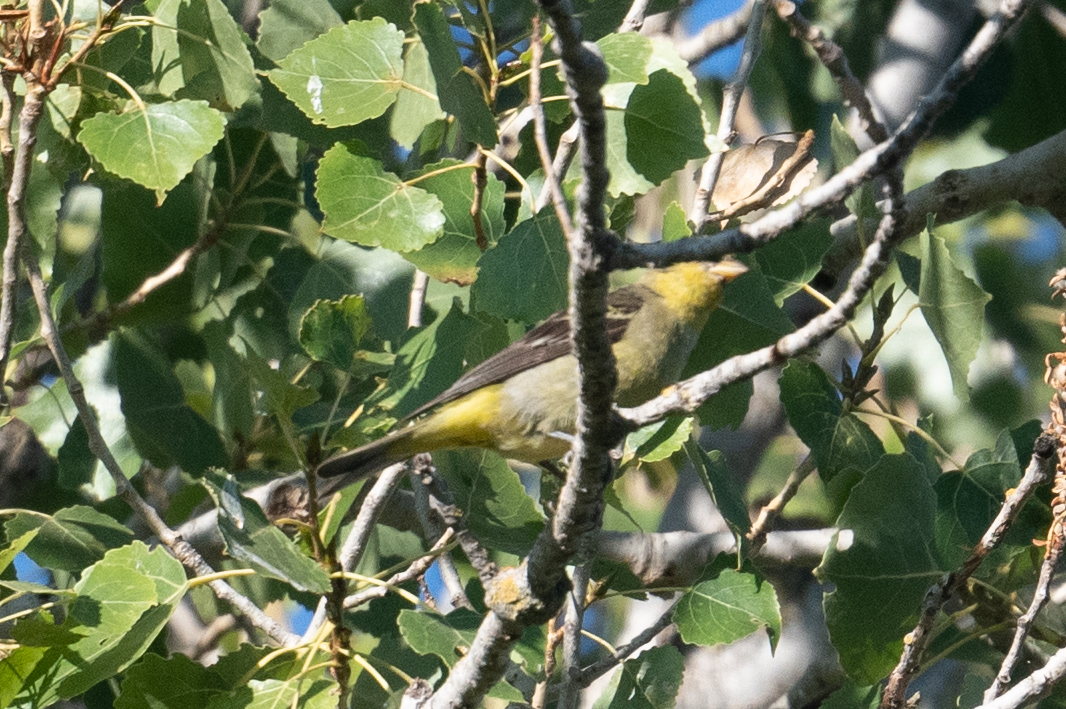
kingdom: Animalia
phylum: Chordata
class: Aves
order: Passeriformes
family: Cardinalidae
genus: Piranga
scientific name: Piranga ludoviciana
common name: Western tanager
